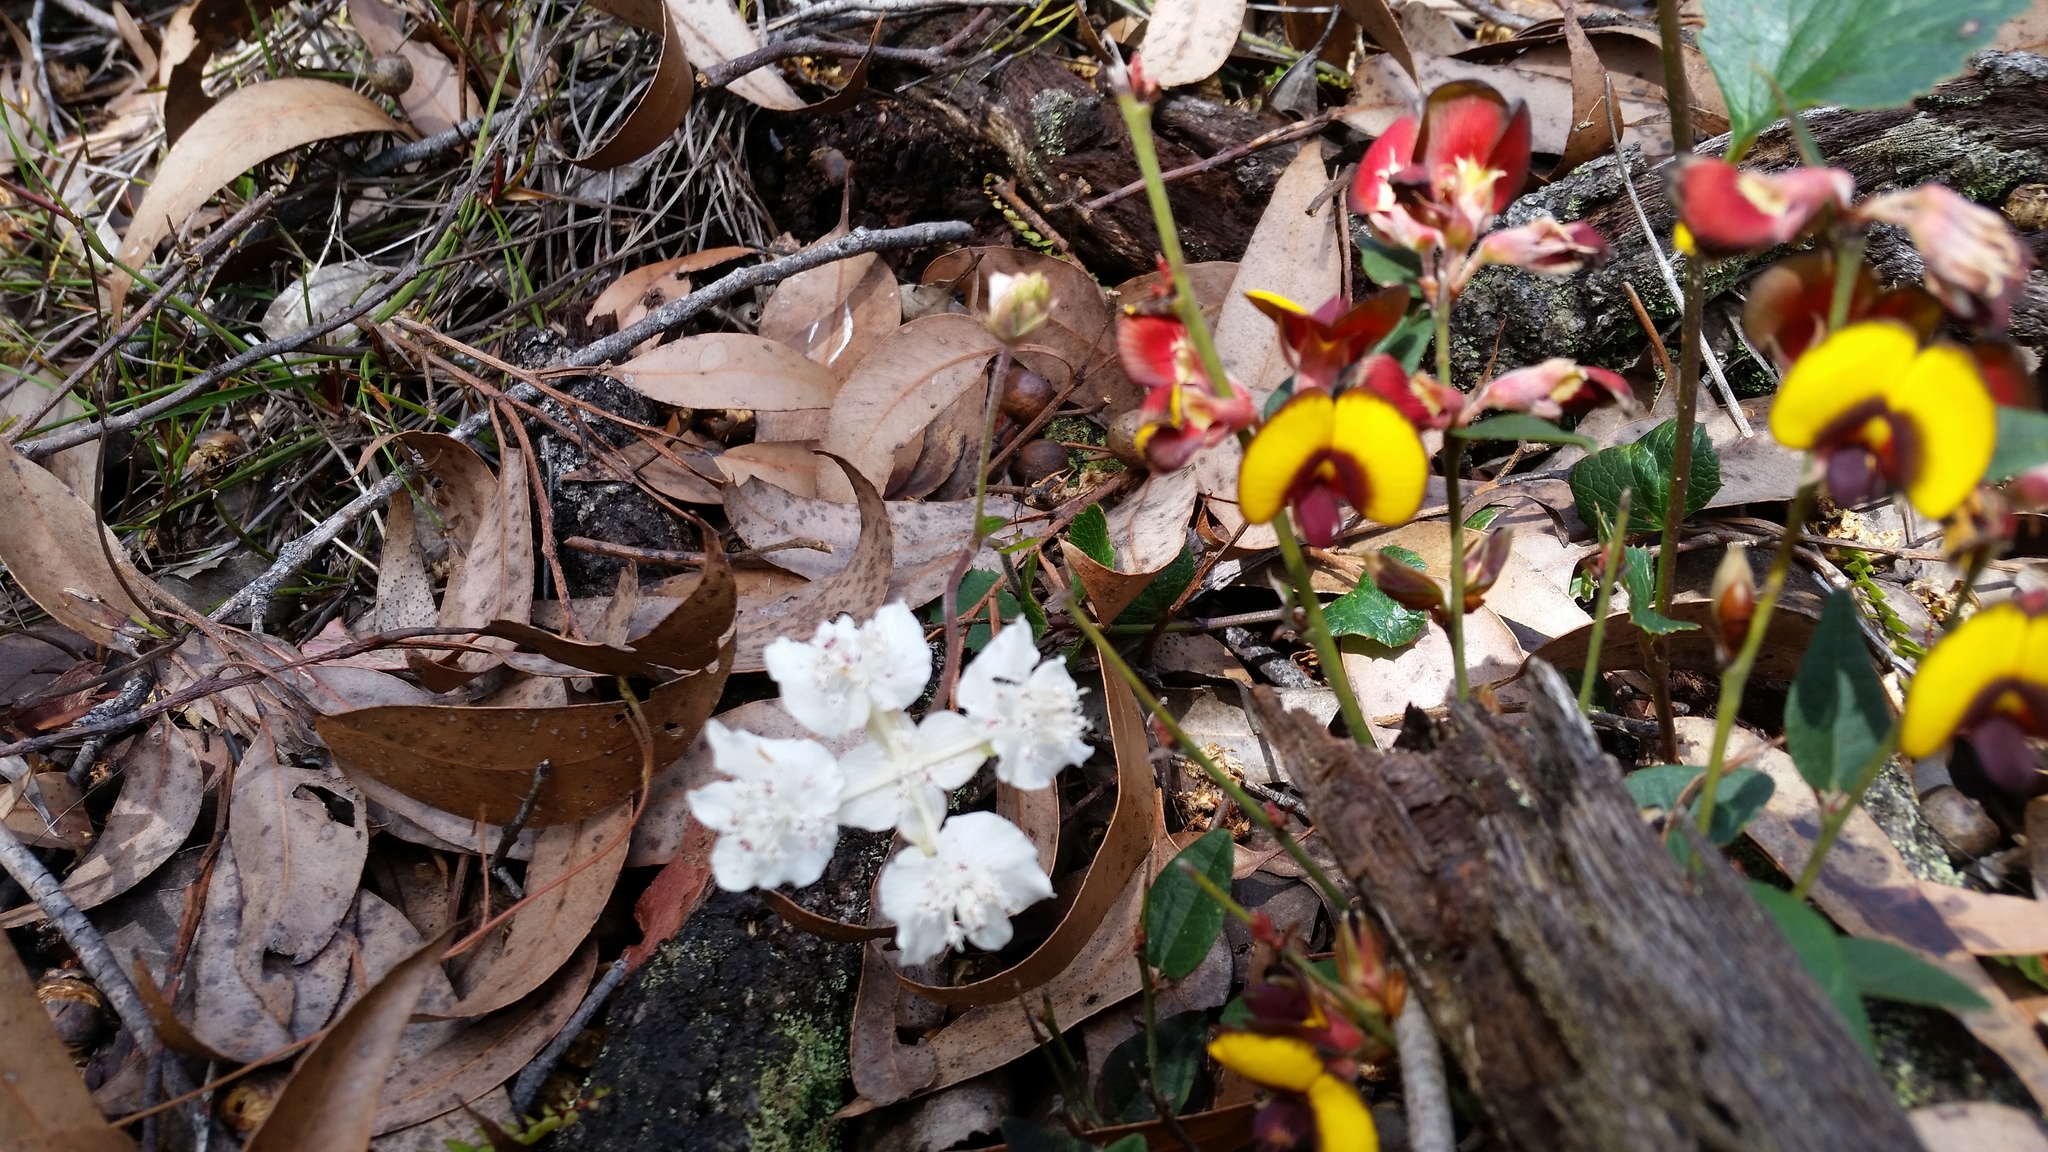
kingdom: Plantae
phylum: Tracheophyta
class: Magnoliopsida
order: Fabales
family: Fabaceae
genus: Bossiaea
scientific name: Bossiaea ornata
